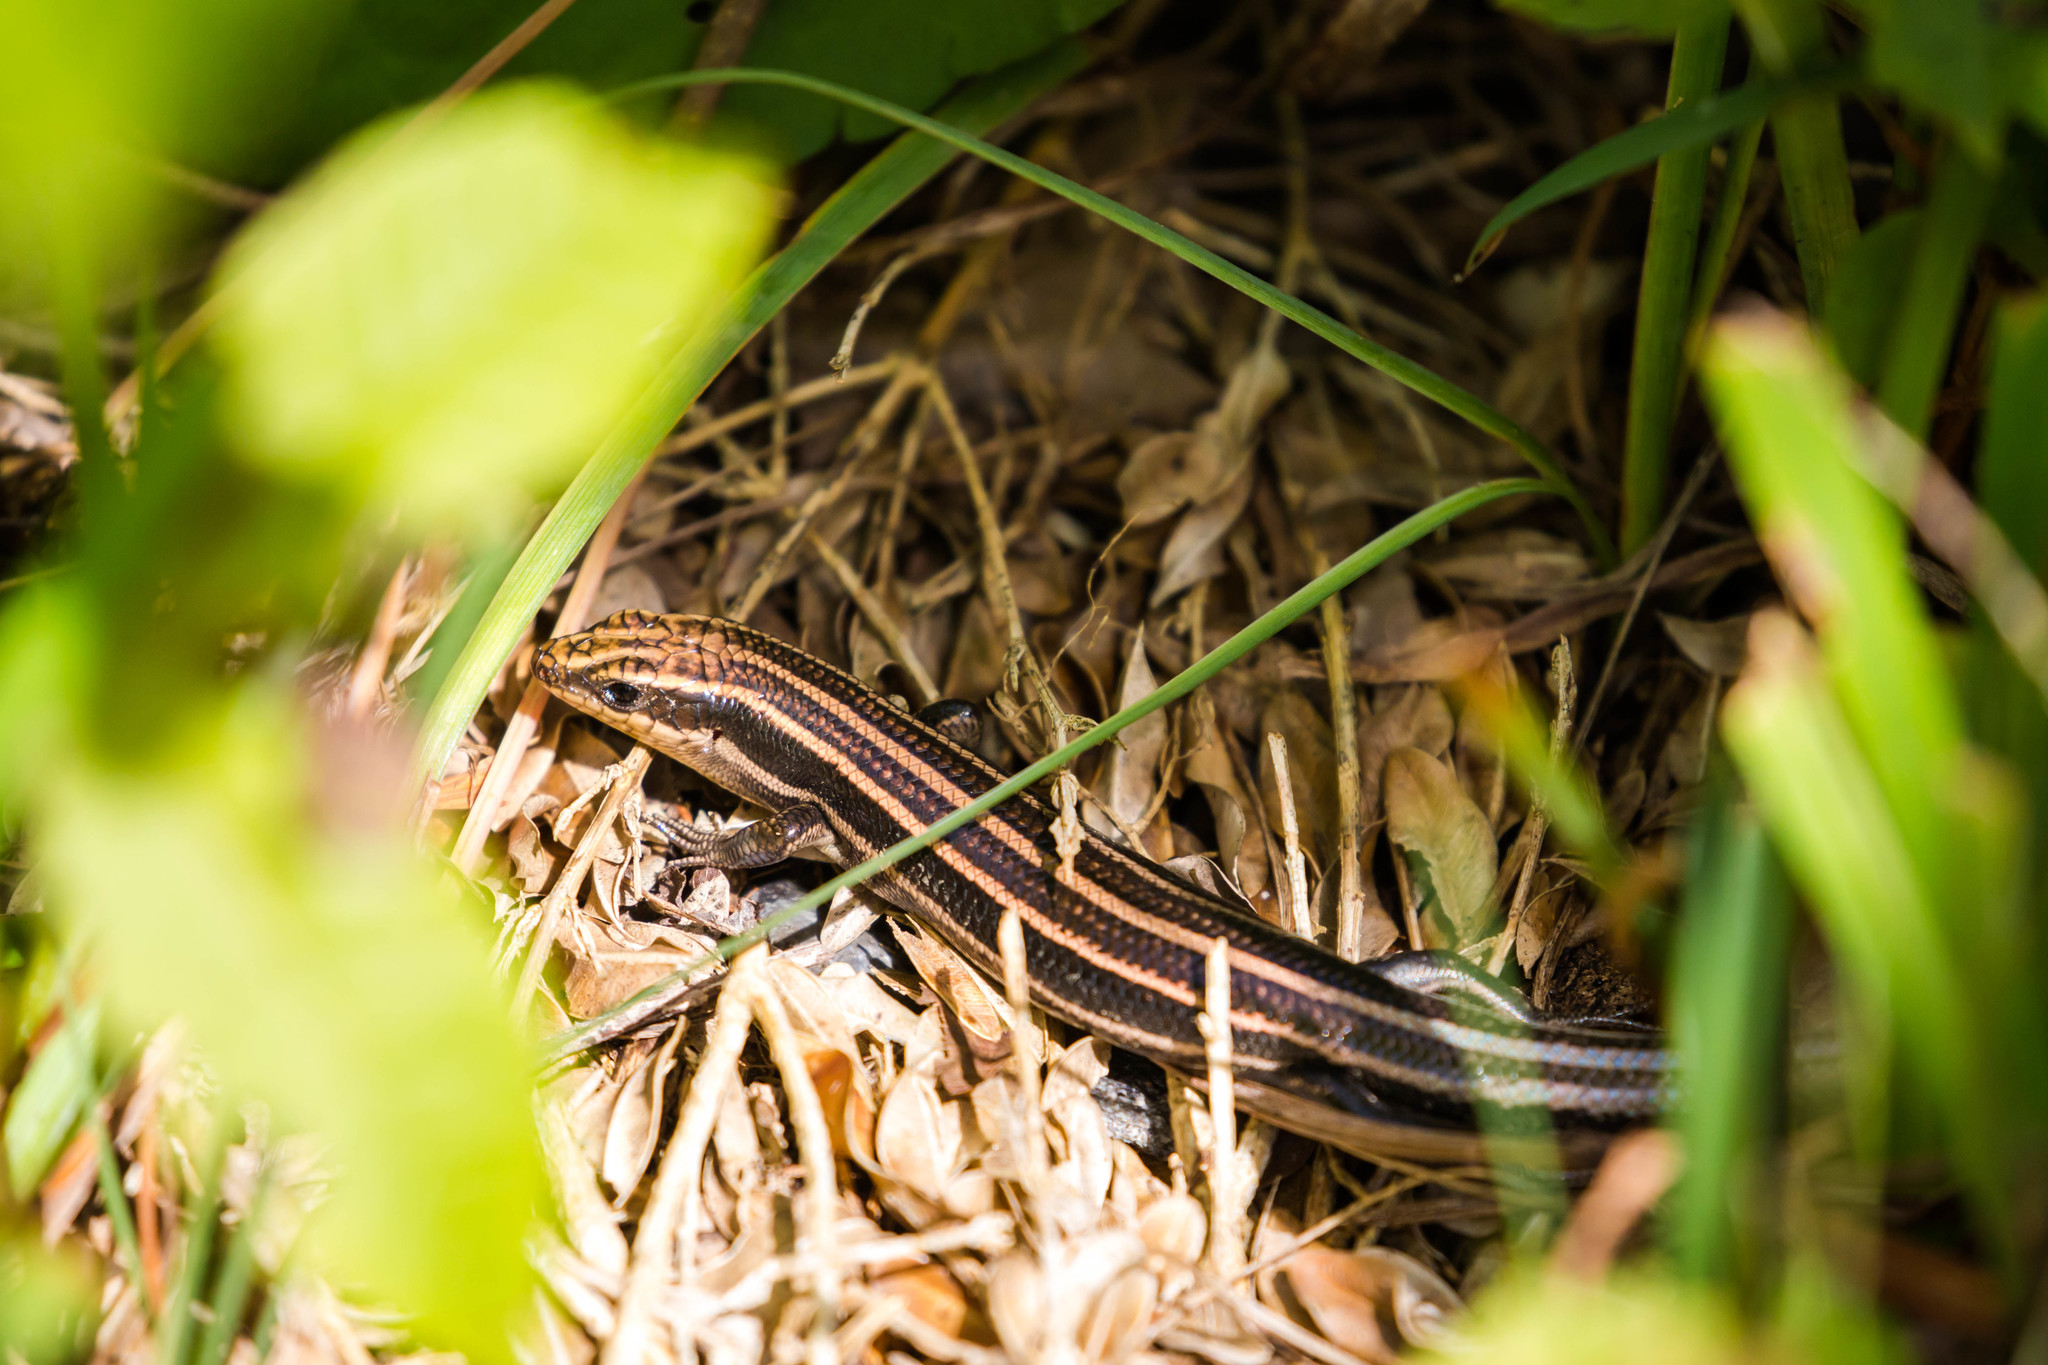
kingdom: Animalia
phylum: Chordata
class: Squamata
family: Scincidae
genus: Plestiodon
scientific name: Plestiodon fasciatus
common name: Five-lined skink
